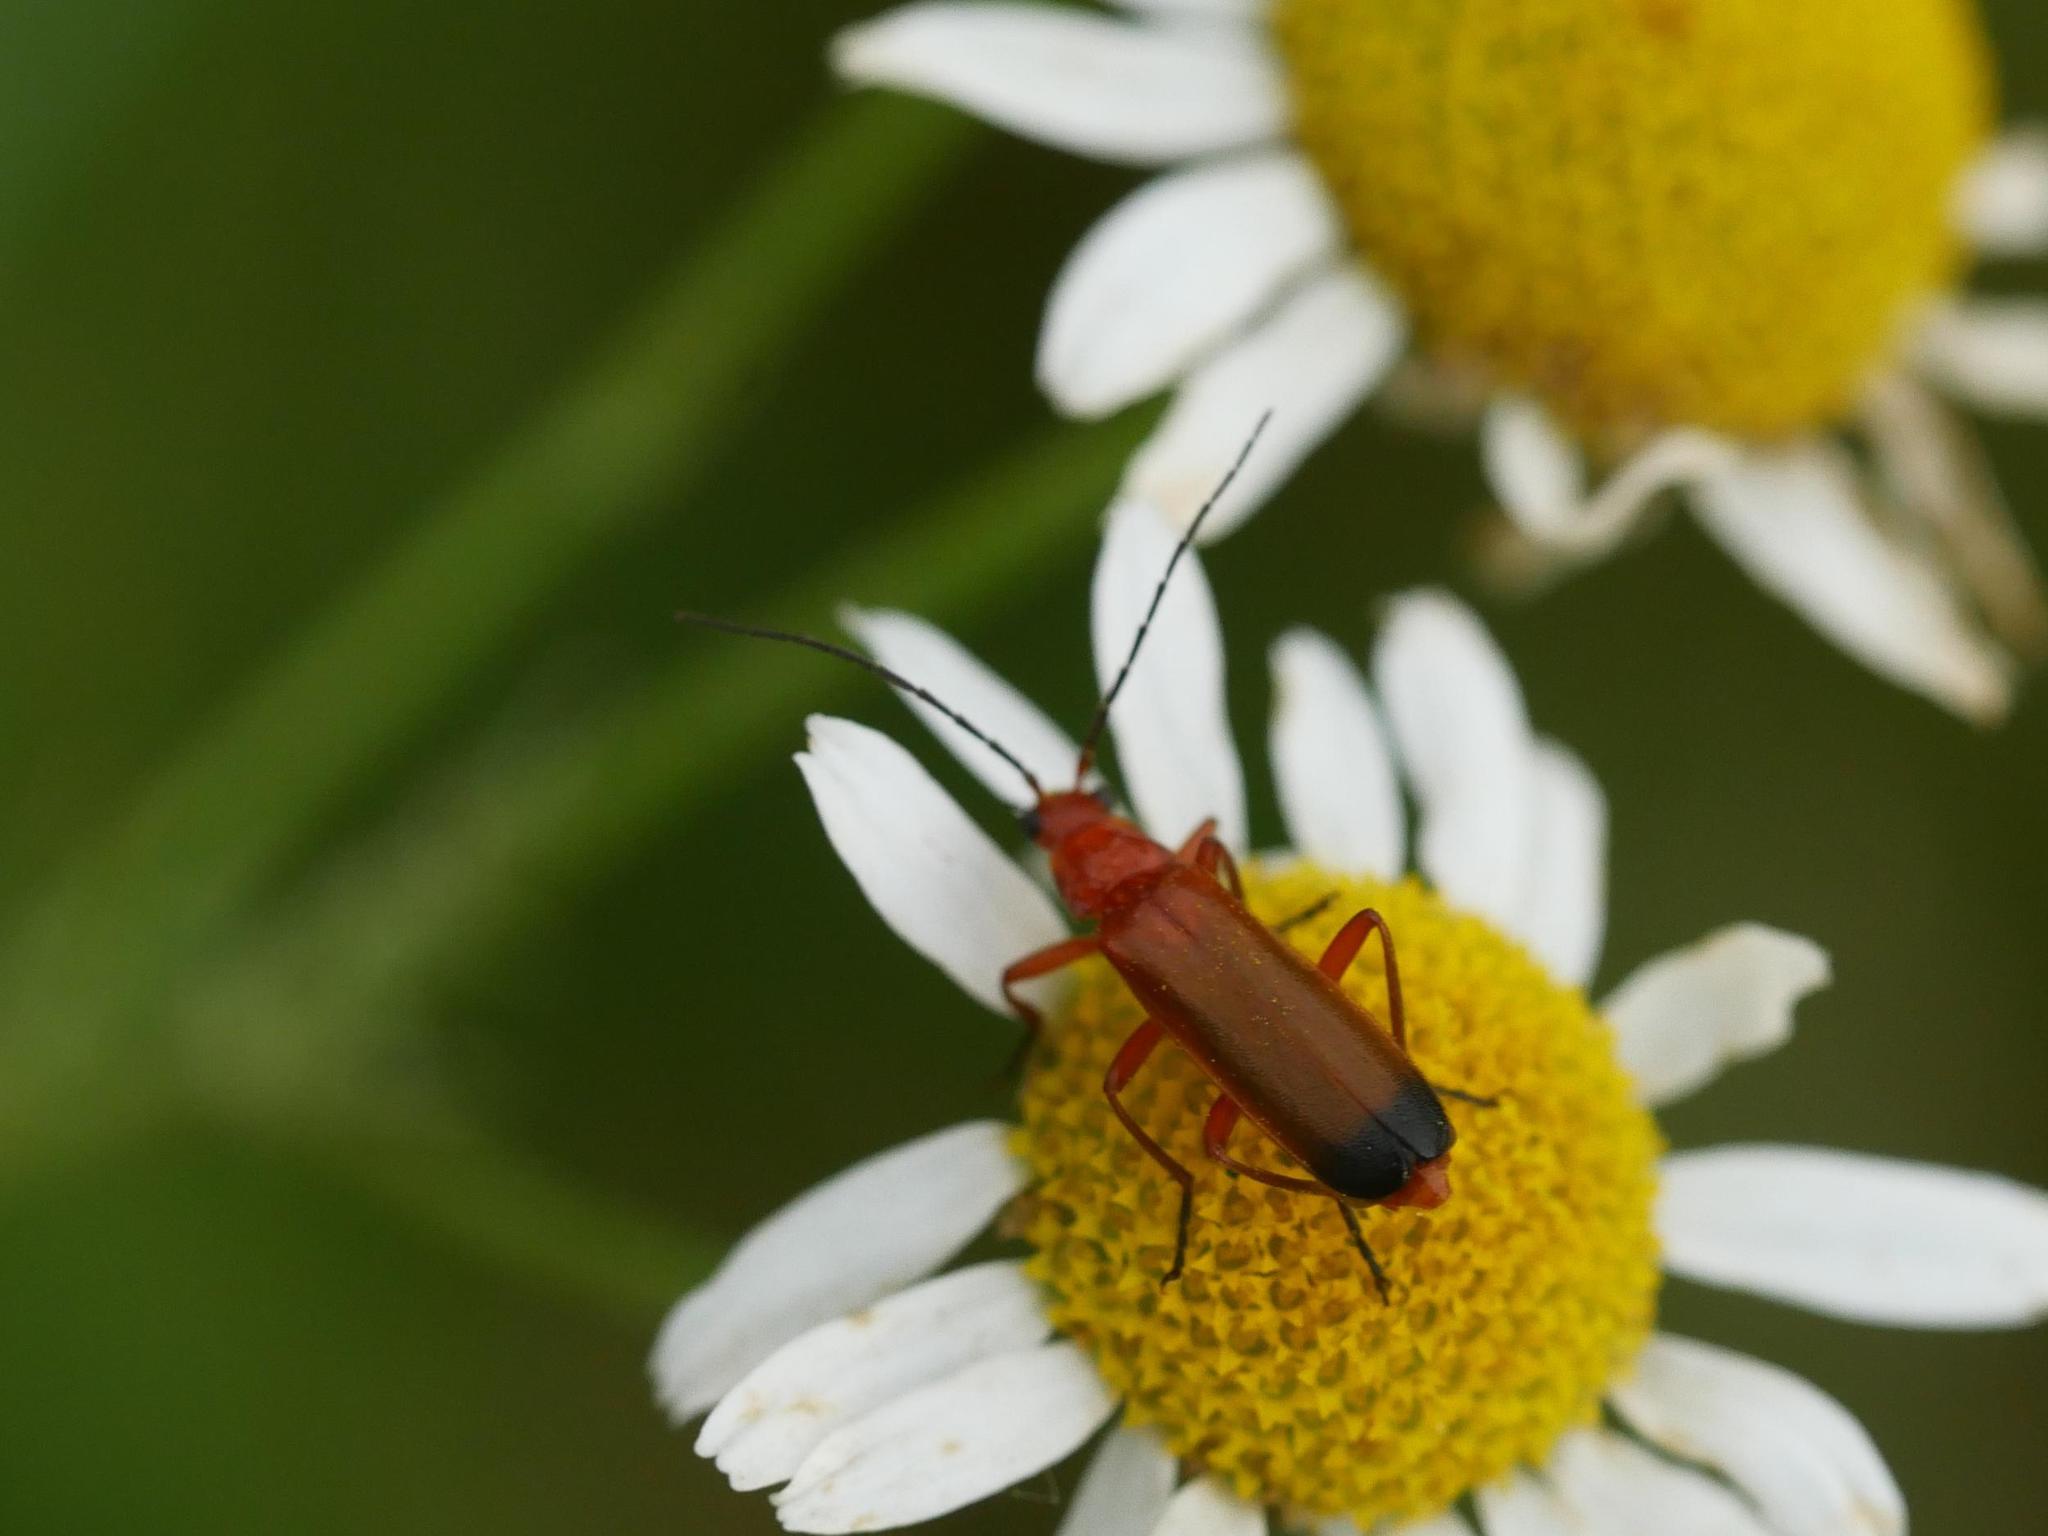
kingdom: Animalia
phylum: Arthropoda
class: Insecta
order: Coleoptera
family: Cantharidae
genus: Rhagonycha
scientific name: Rhagonycha fulva
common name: Common red soldier beetle
